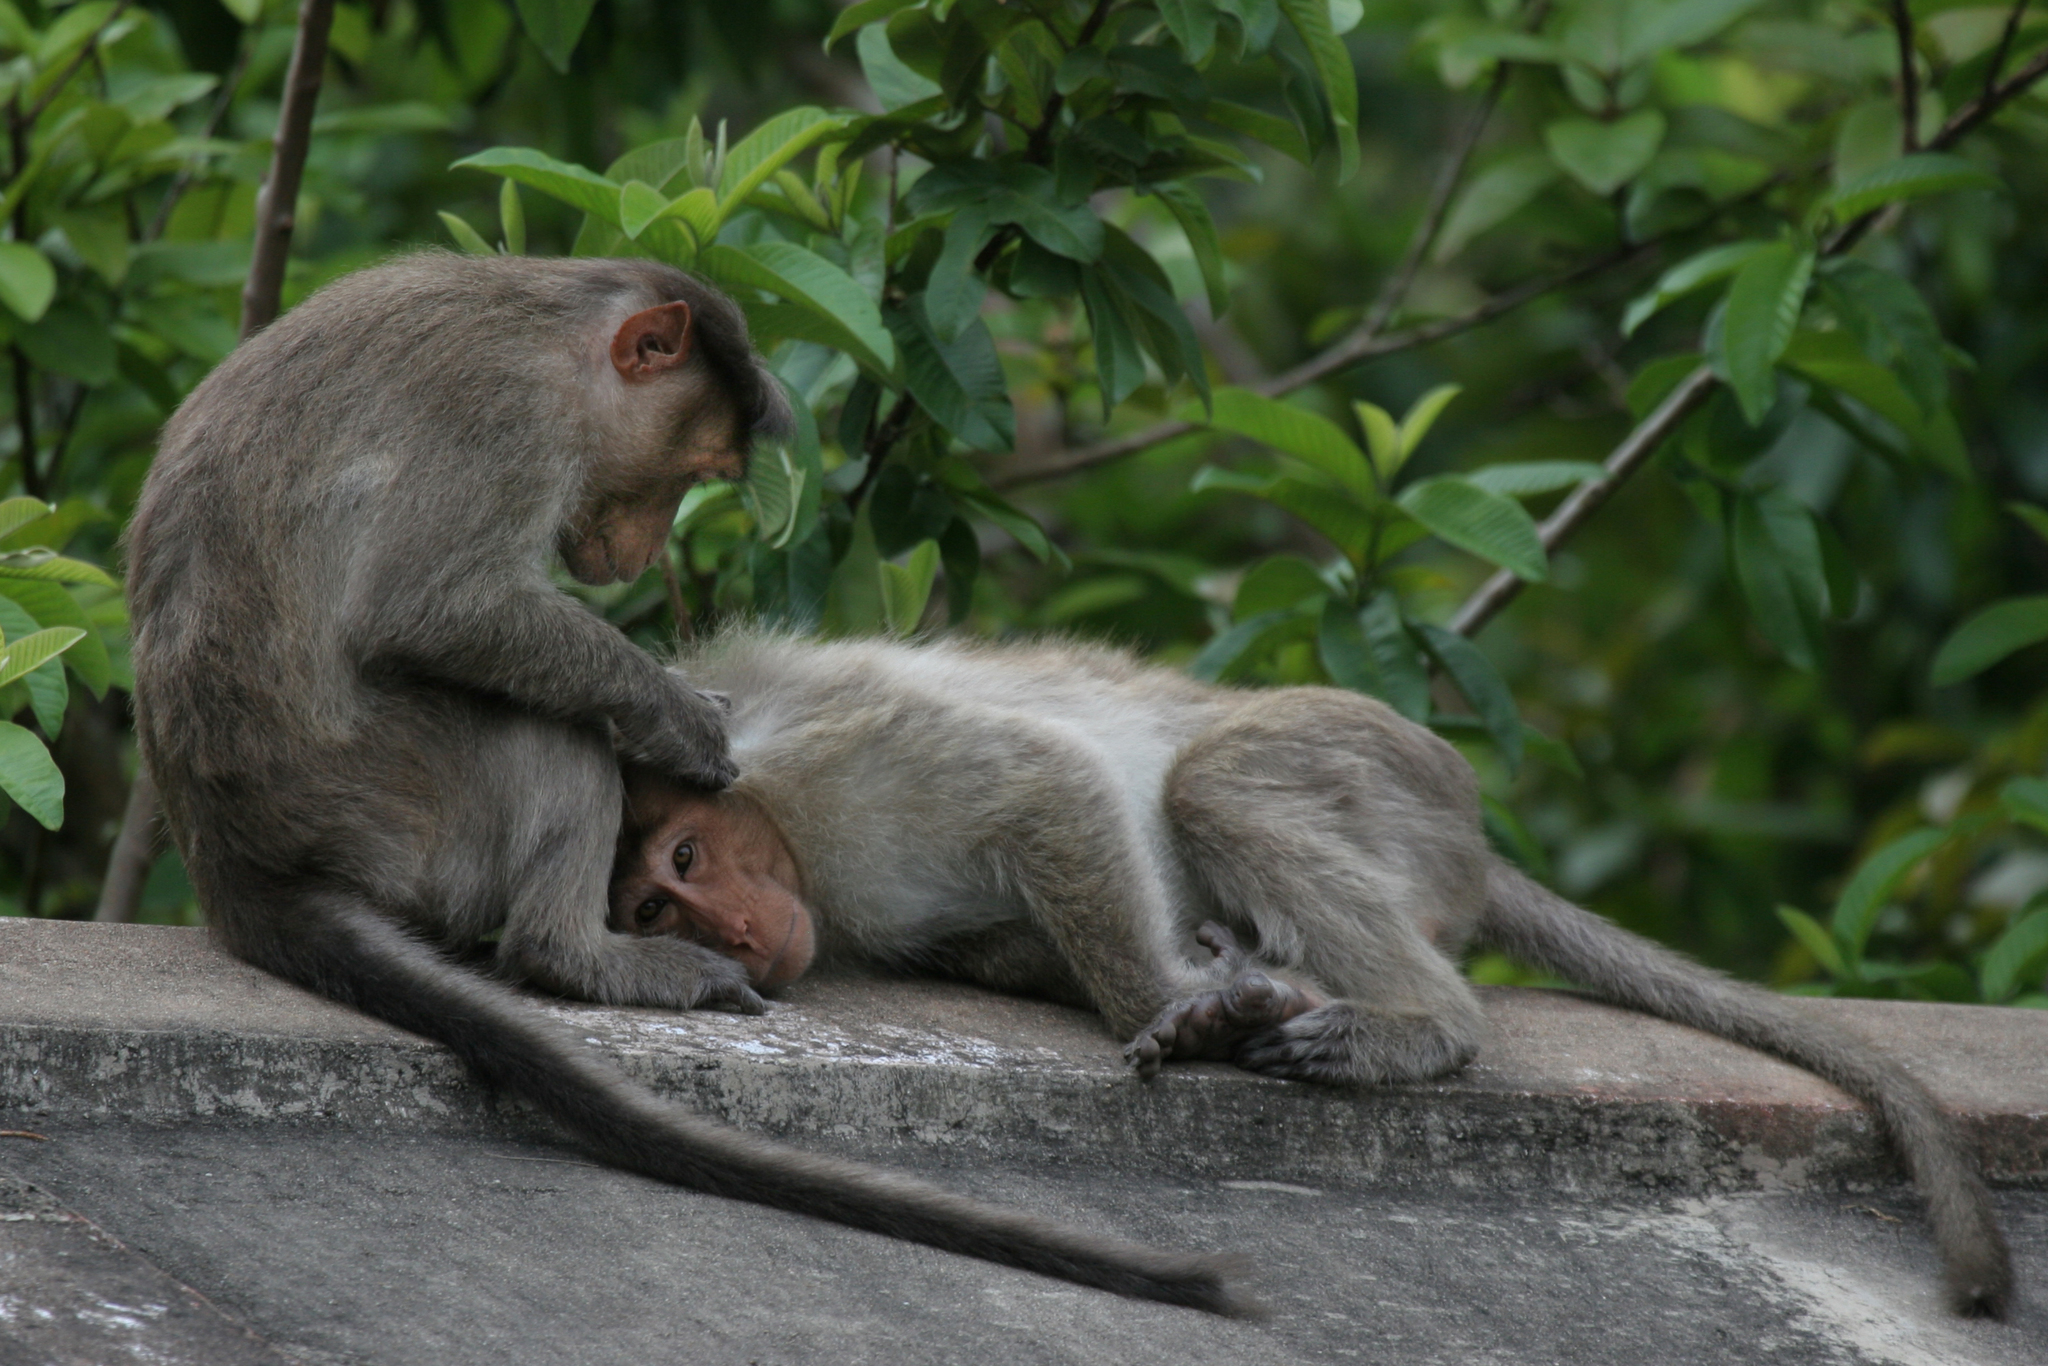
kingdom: Animalia
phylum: Chordata
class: Mammalia
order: Primates
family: Cercopithecidae
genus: Macaca
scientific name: Macaca radiata
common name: Bonnet macaque
